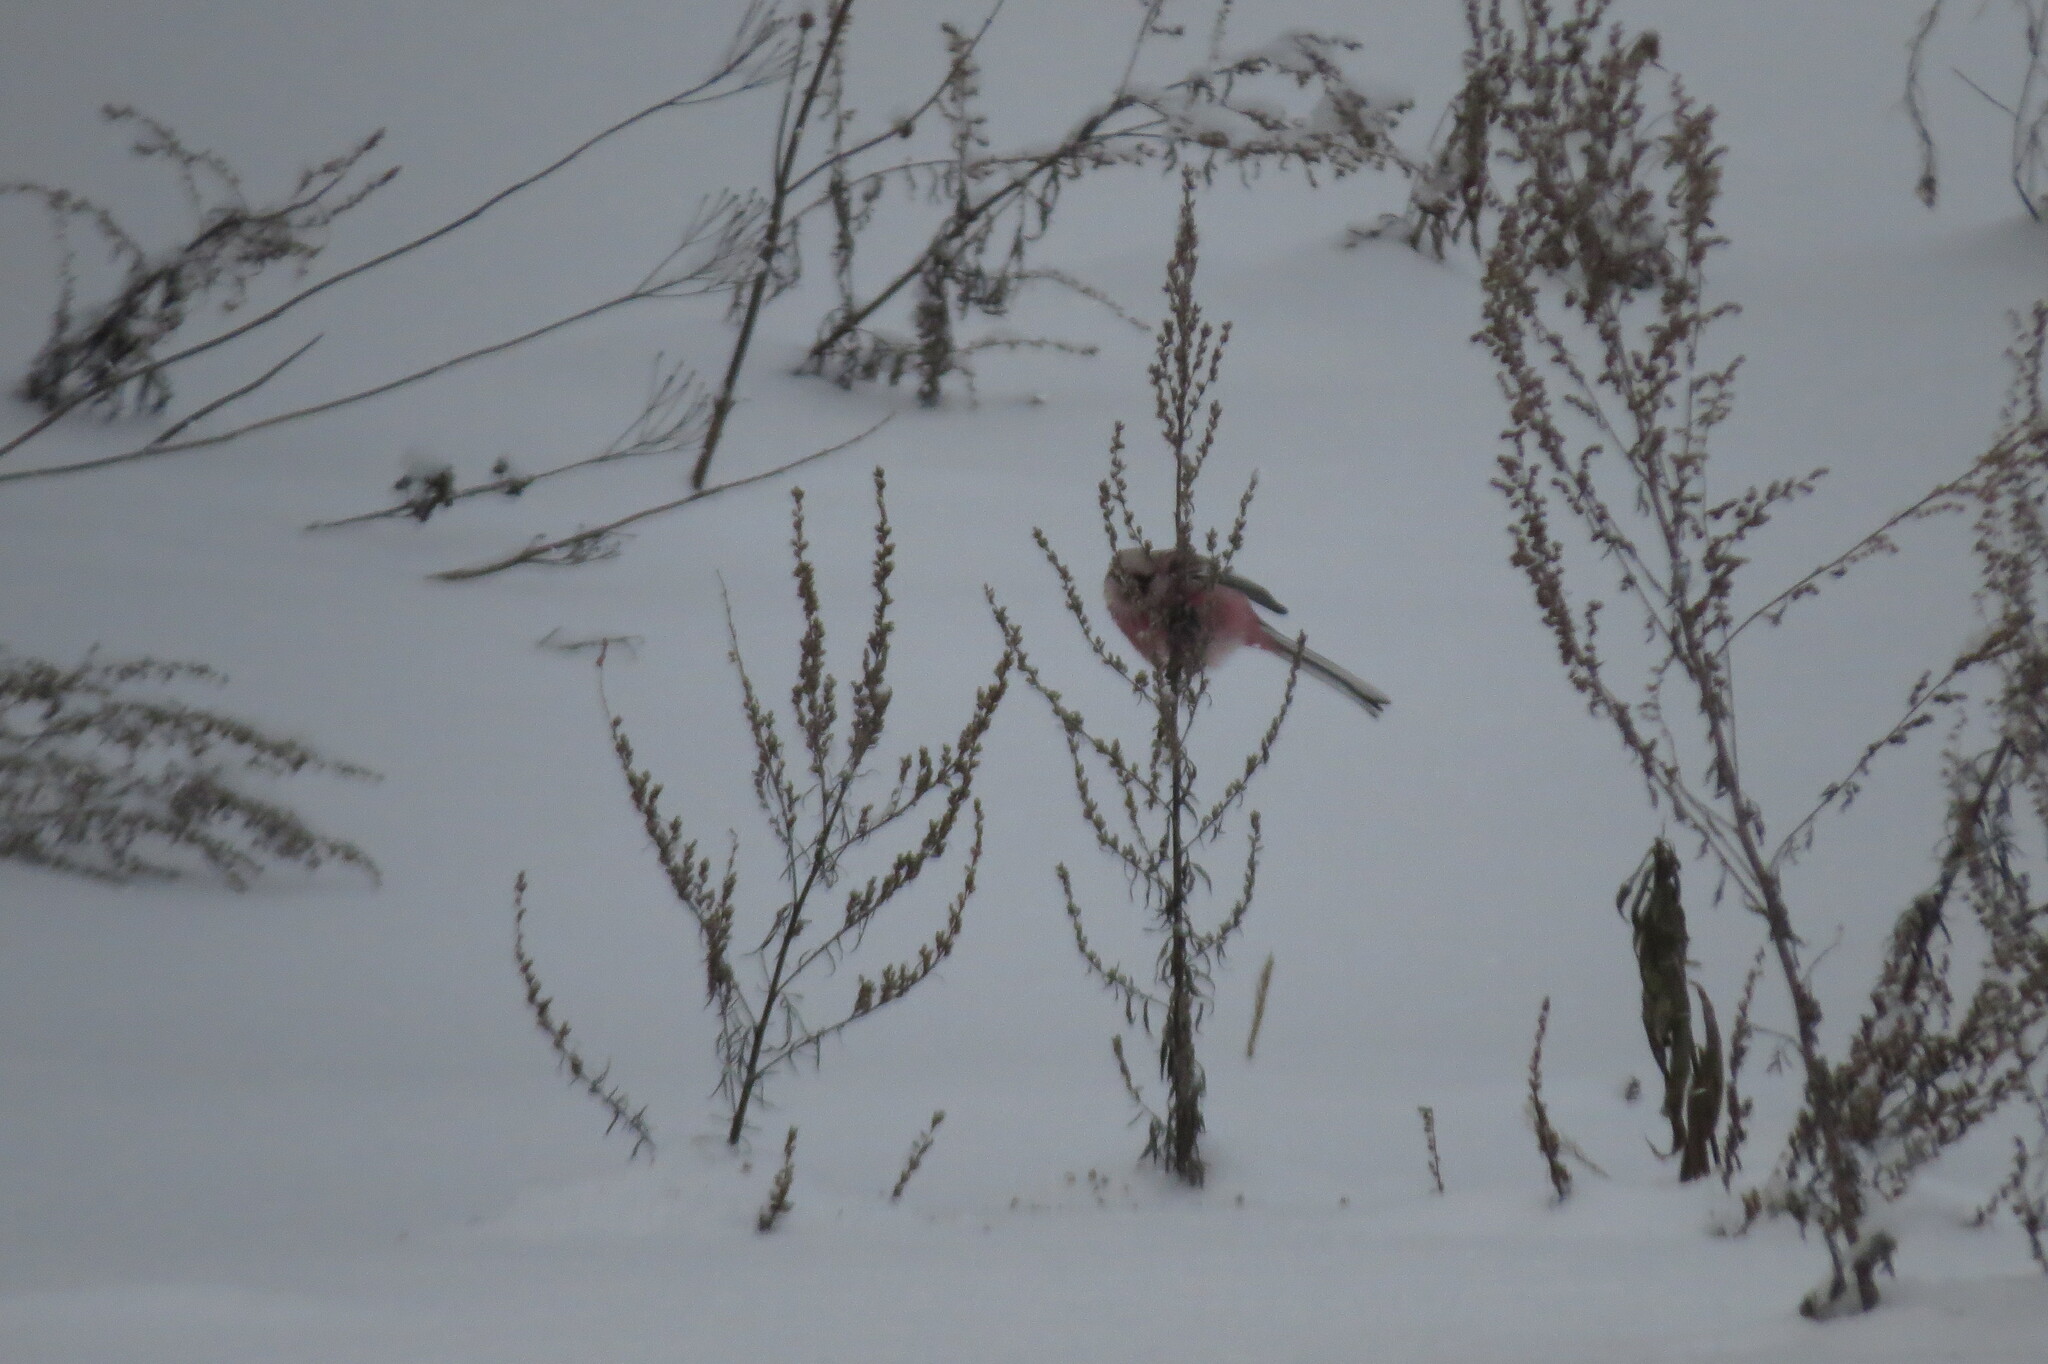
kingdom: Animalia
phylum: Chordata
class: Aves
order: Passeriformes
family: Fringillidae
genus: Carpodacus
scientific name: Carpodacus sibiricus
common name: Long-tailed rosefinch
